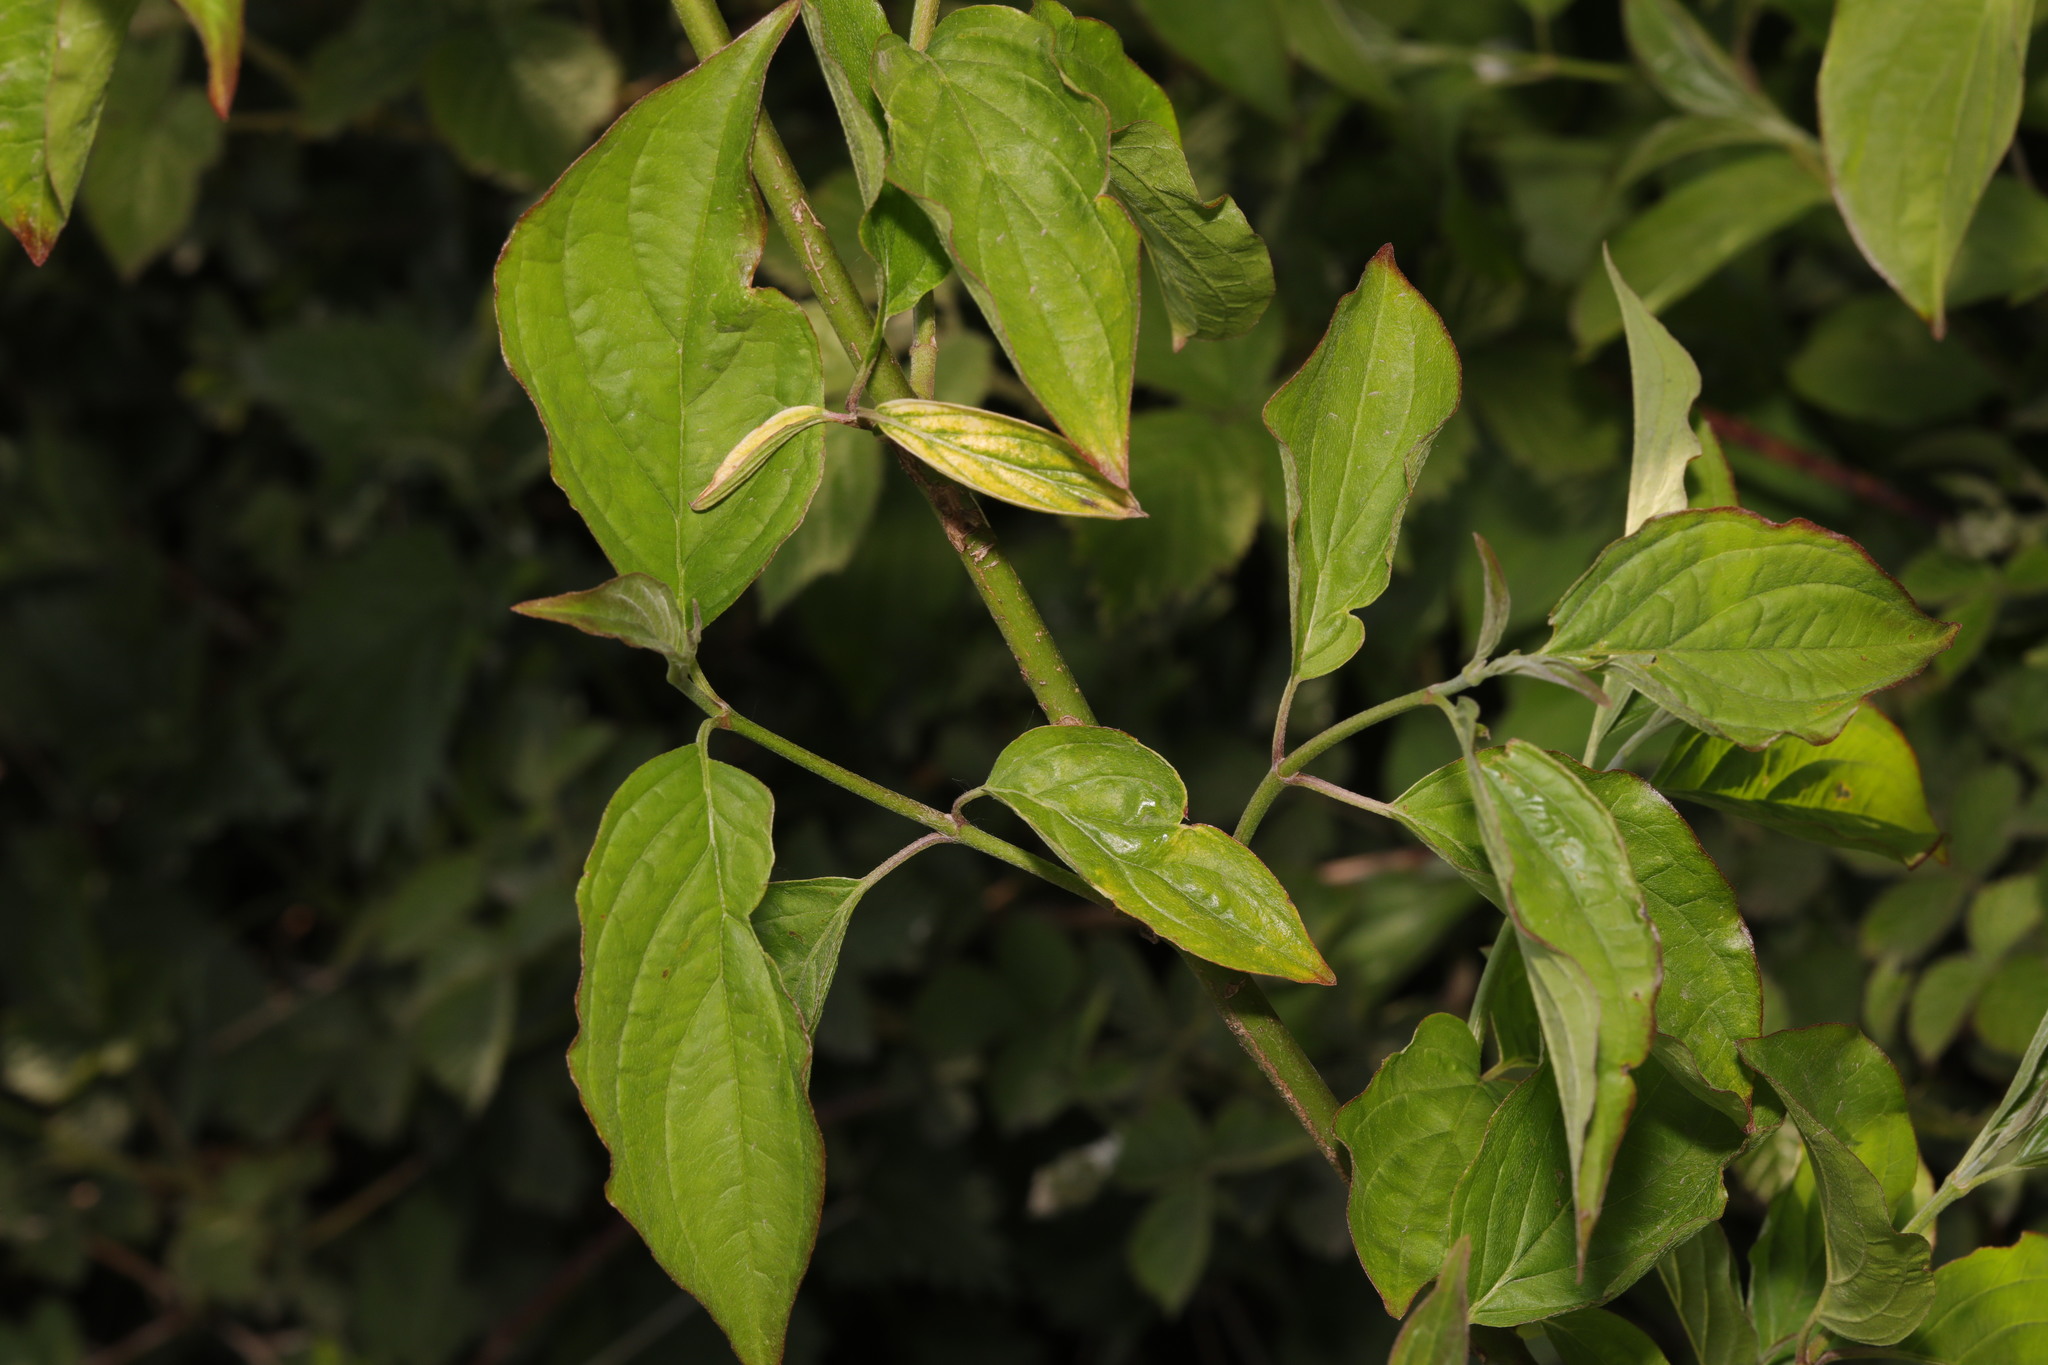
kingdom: Plantae
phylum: Tracheophyta
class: Magnoliopsida
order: Cornales
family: Cornaceae
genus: Cornus
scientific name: Cornus sanguinea
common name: Dogwood
